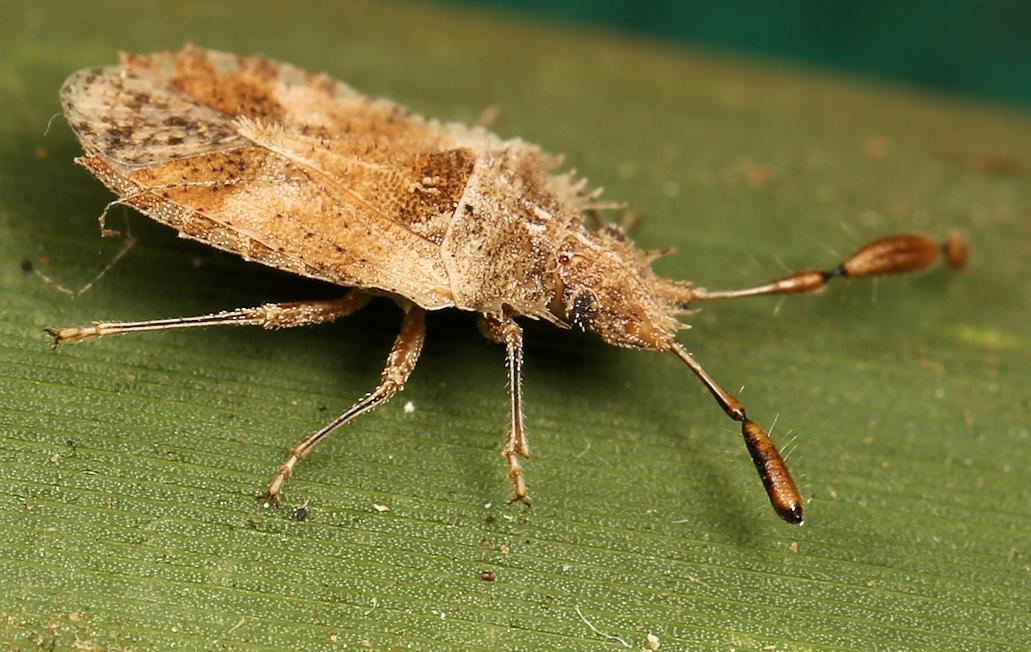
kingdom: Animalia
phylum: Arthropoda
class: Insecta
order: Hemiptera
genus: Phricodus
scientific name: Phricodus
